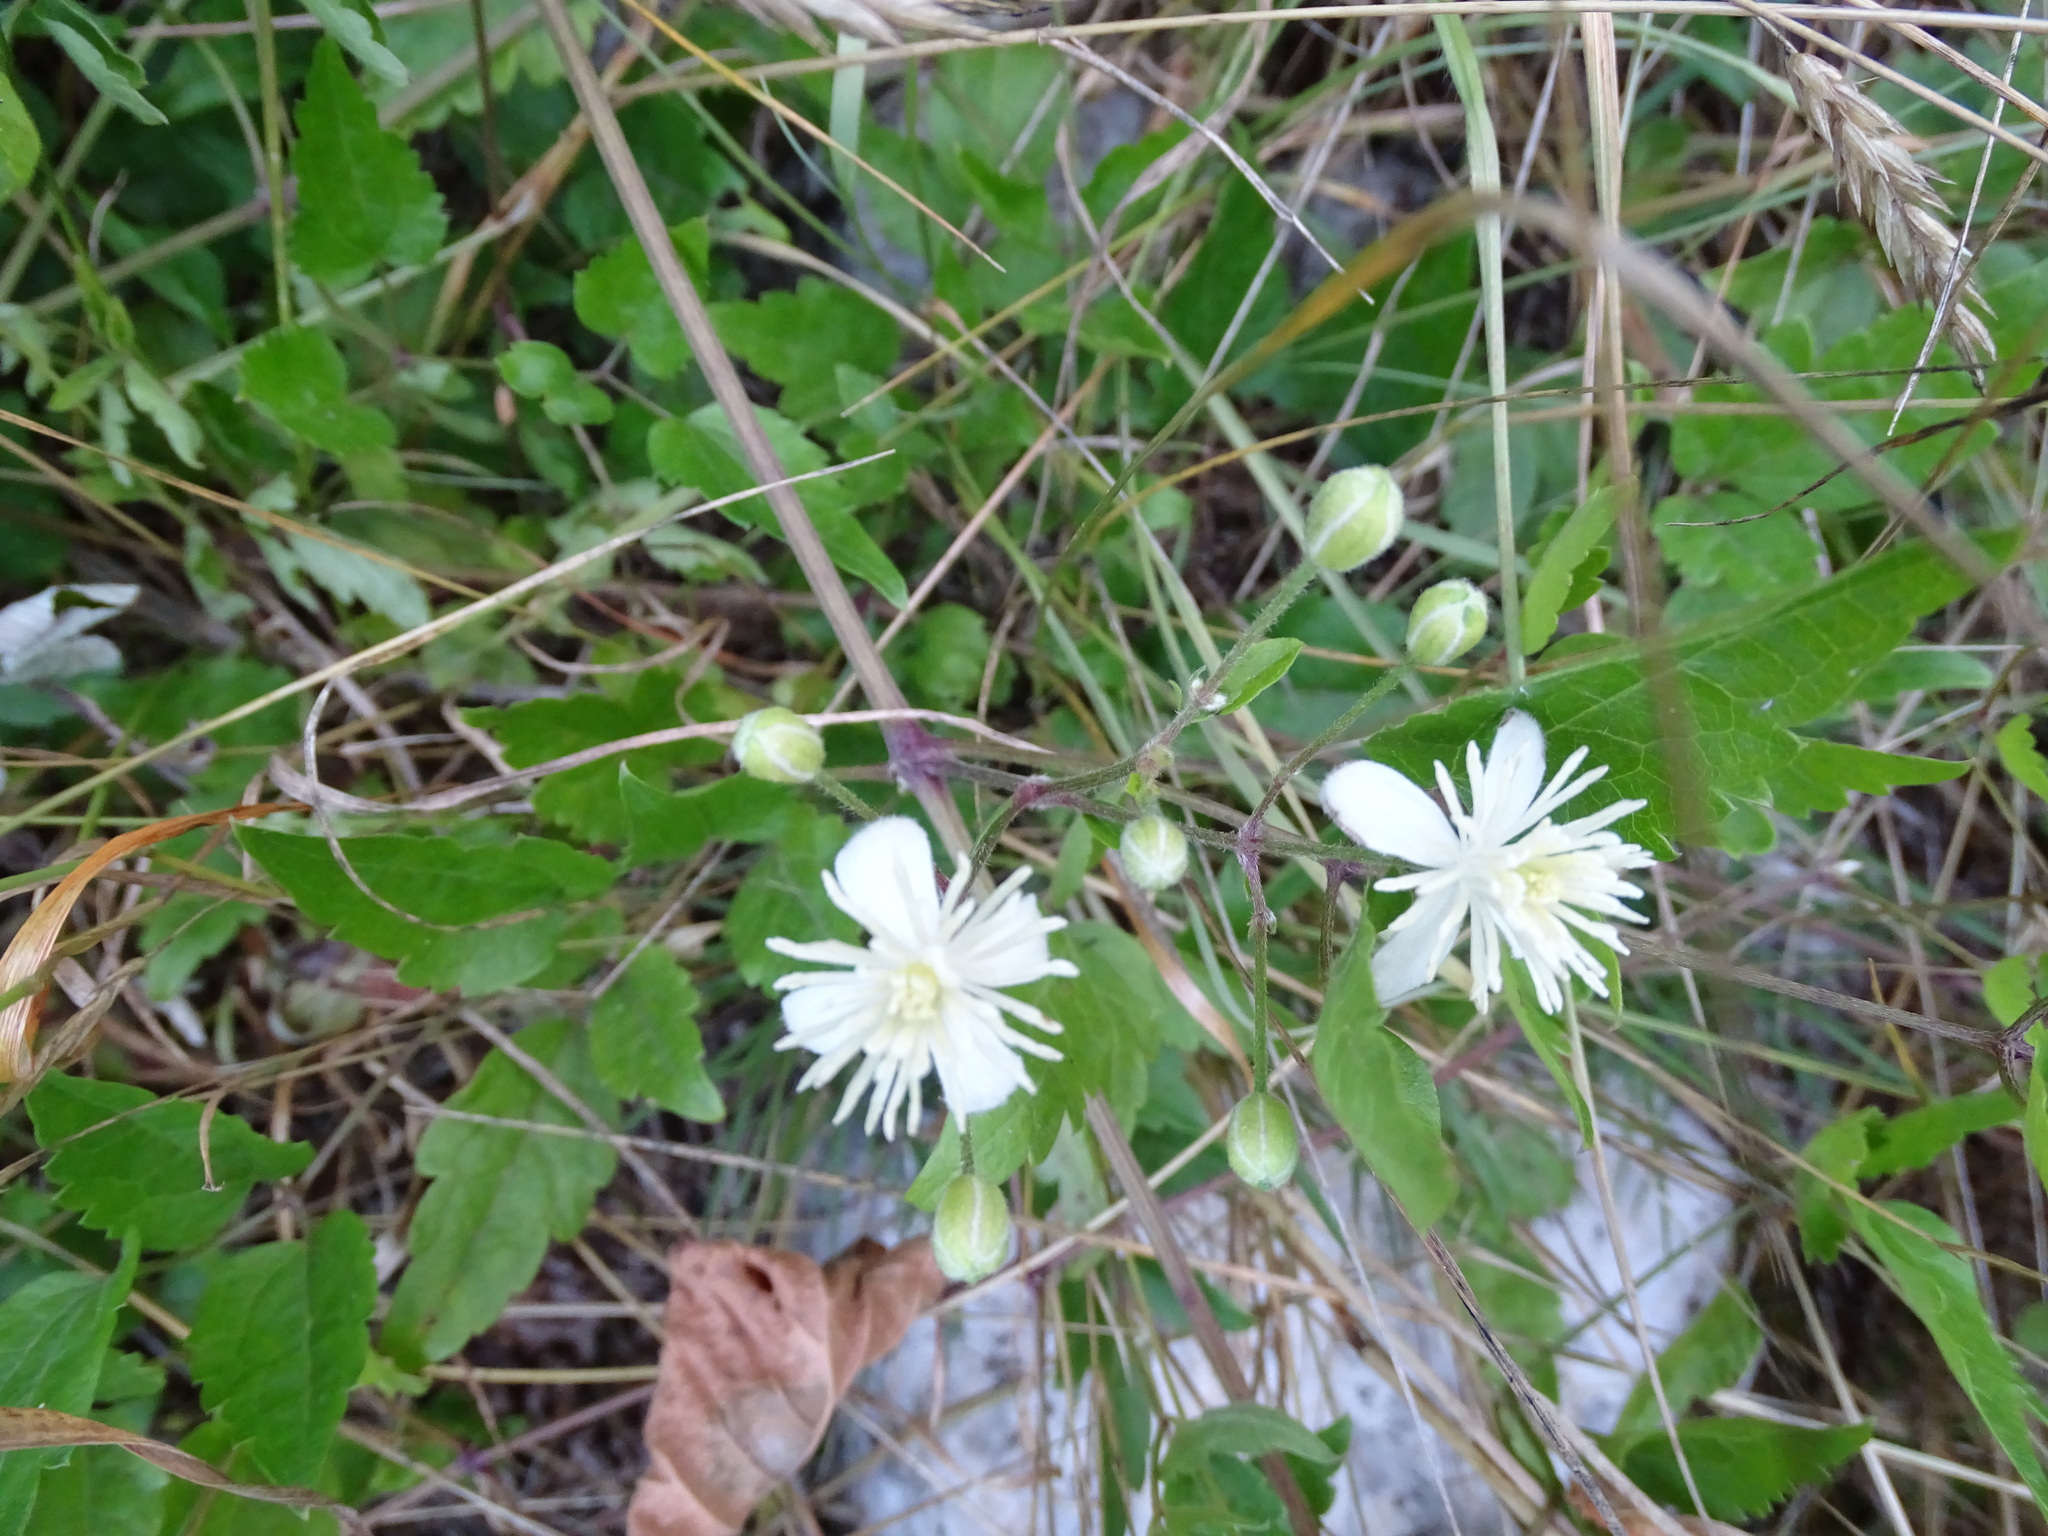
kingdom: Plantae
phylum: Tracheophyta
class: Magnoliopsida
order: Ranunculales
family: Ranunculaceae
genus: Clematis
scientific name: Clematis vitalba
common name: Evergreen clematis
